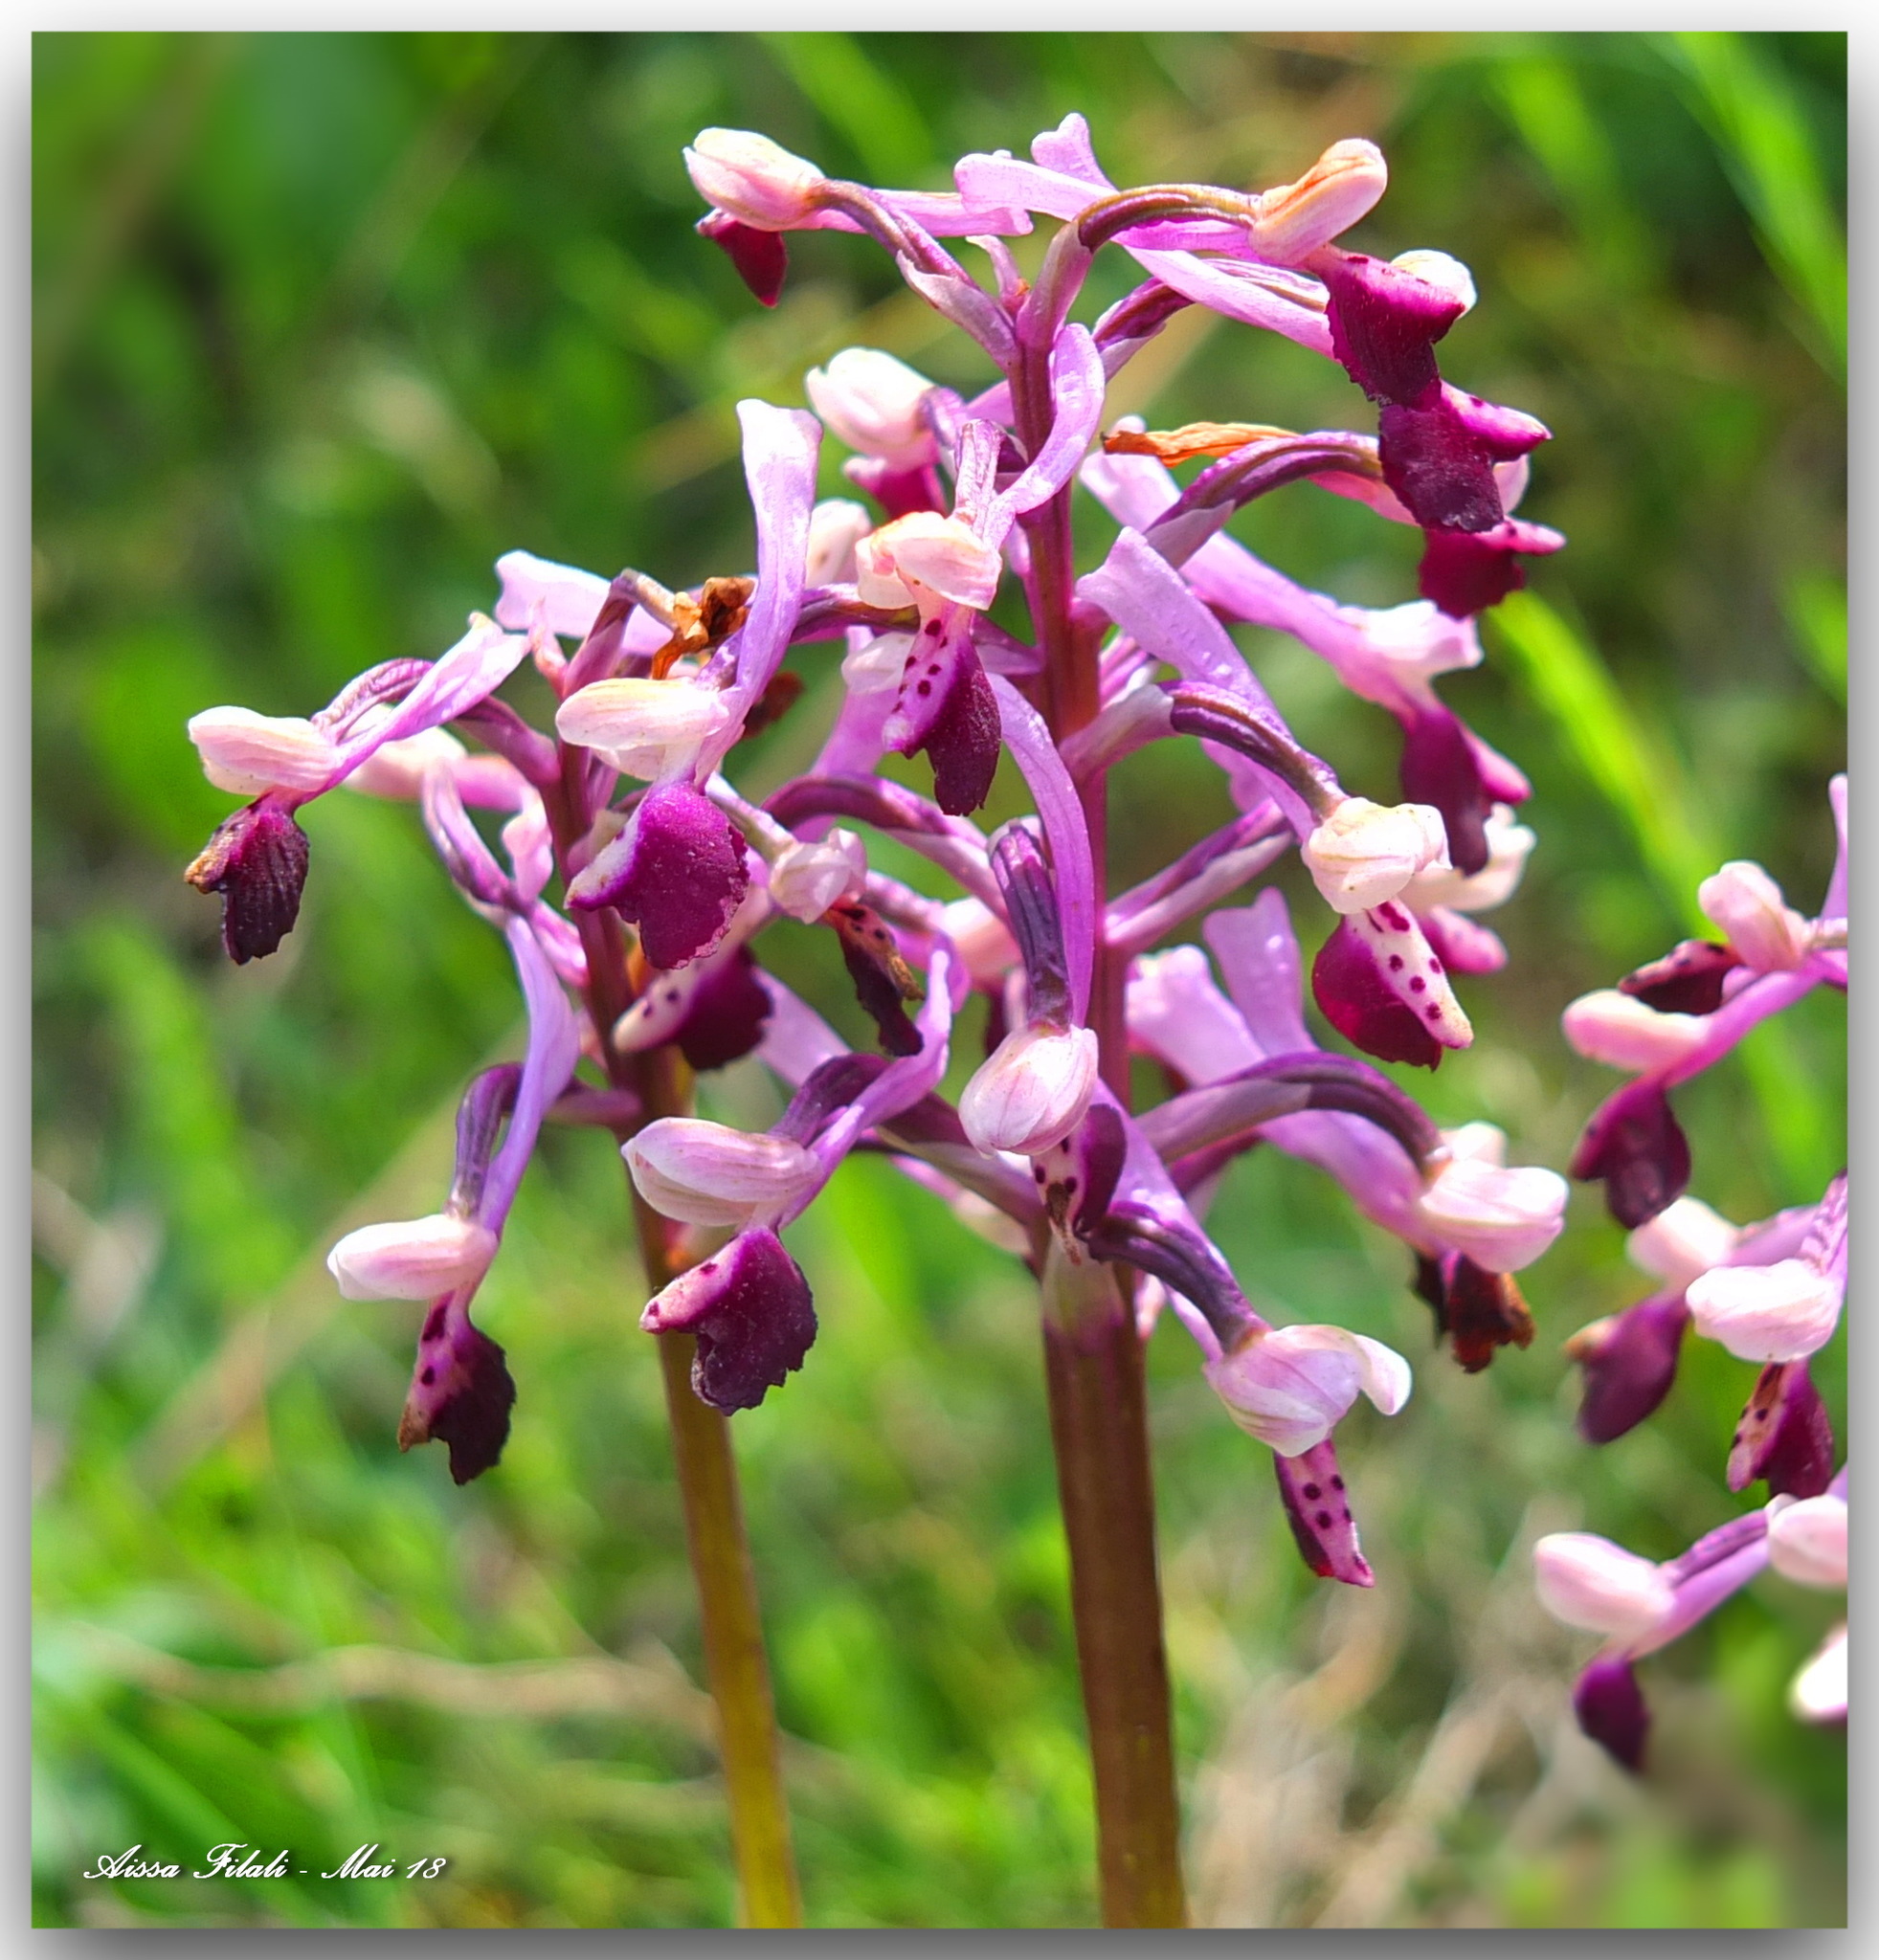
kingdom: Plantae
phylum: Tracheophyta
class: Liliopsida
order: Asparagales
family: Orchidaceae
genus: Anacamptis
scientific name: Anacamptis morio
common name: Green-winged orchid
